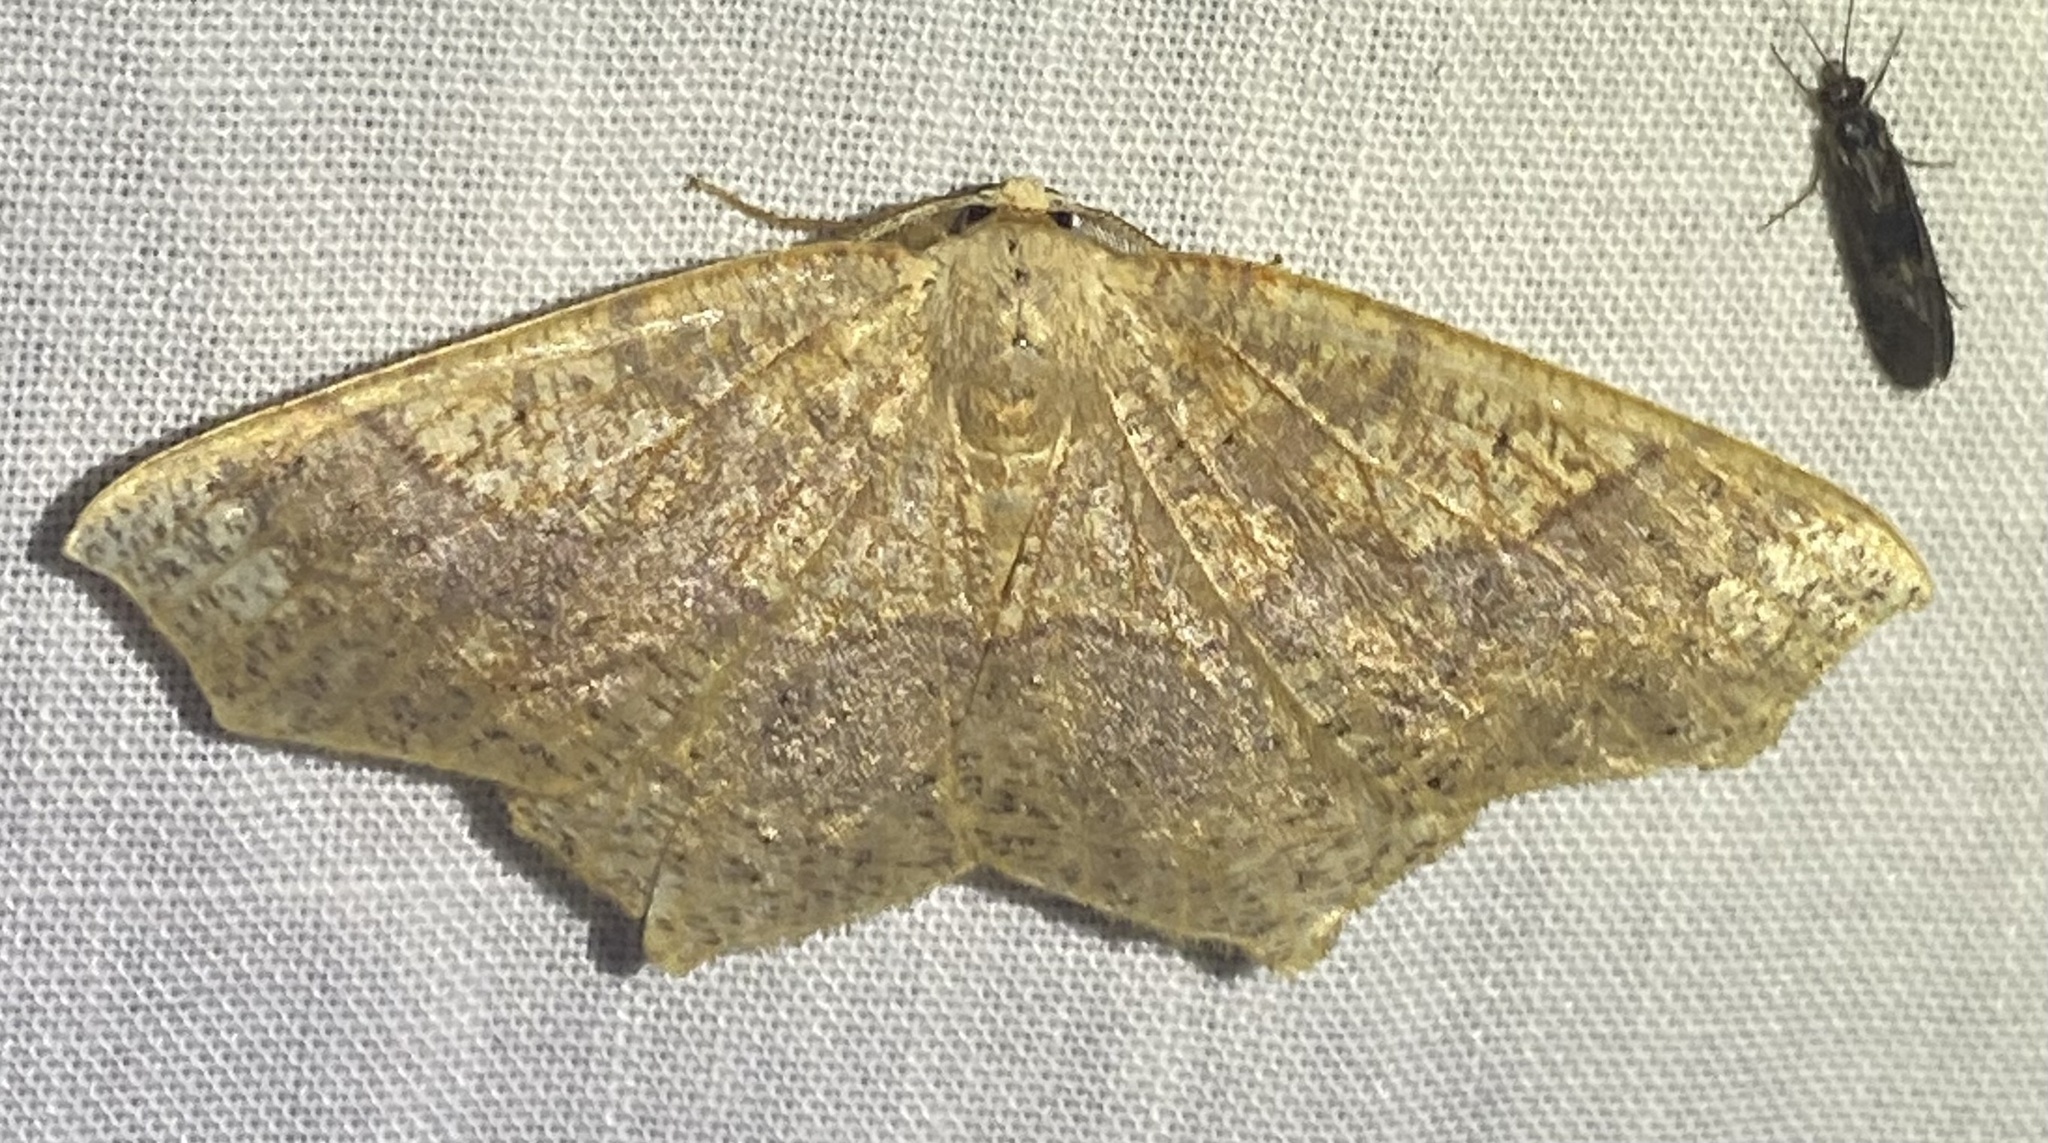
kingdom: Animalia
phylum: Arthropoda
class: Insecta
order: Lepidoptera
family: Geometridae
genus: Besma
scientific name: Besma quercivoraria
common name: Oak besma
